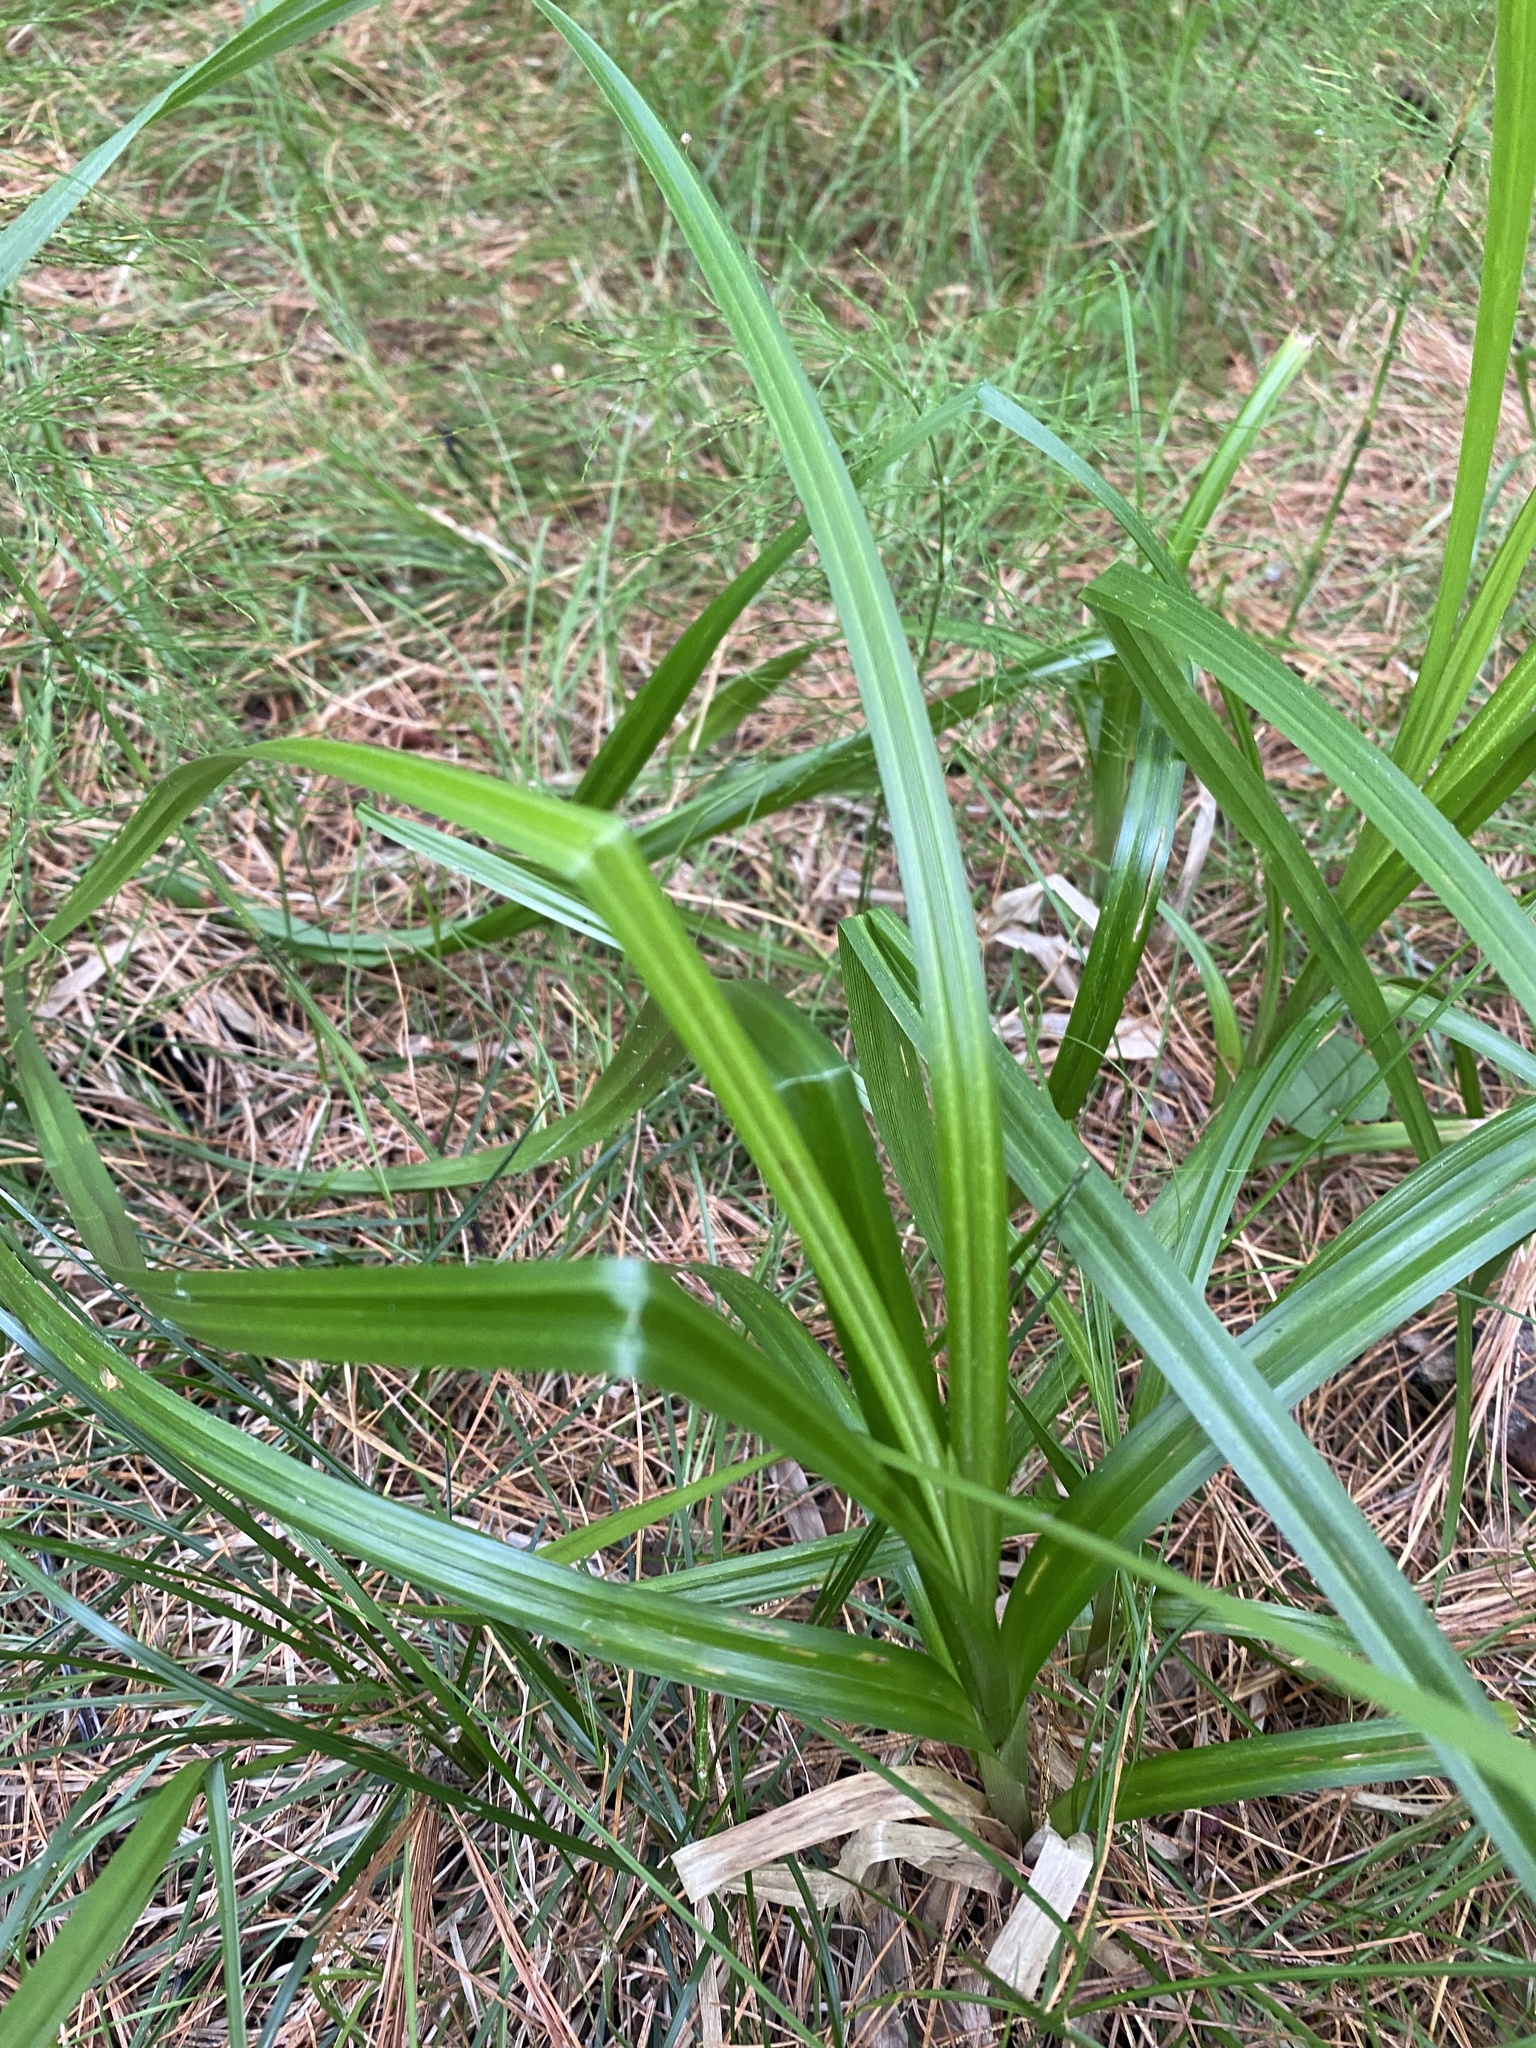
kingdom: Plantae
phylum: Tracheophyta
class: Liliopsida
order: Poales
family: Cyperaceae
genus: Carex
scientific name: Carex utriculata
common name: Beaked sedge
